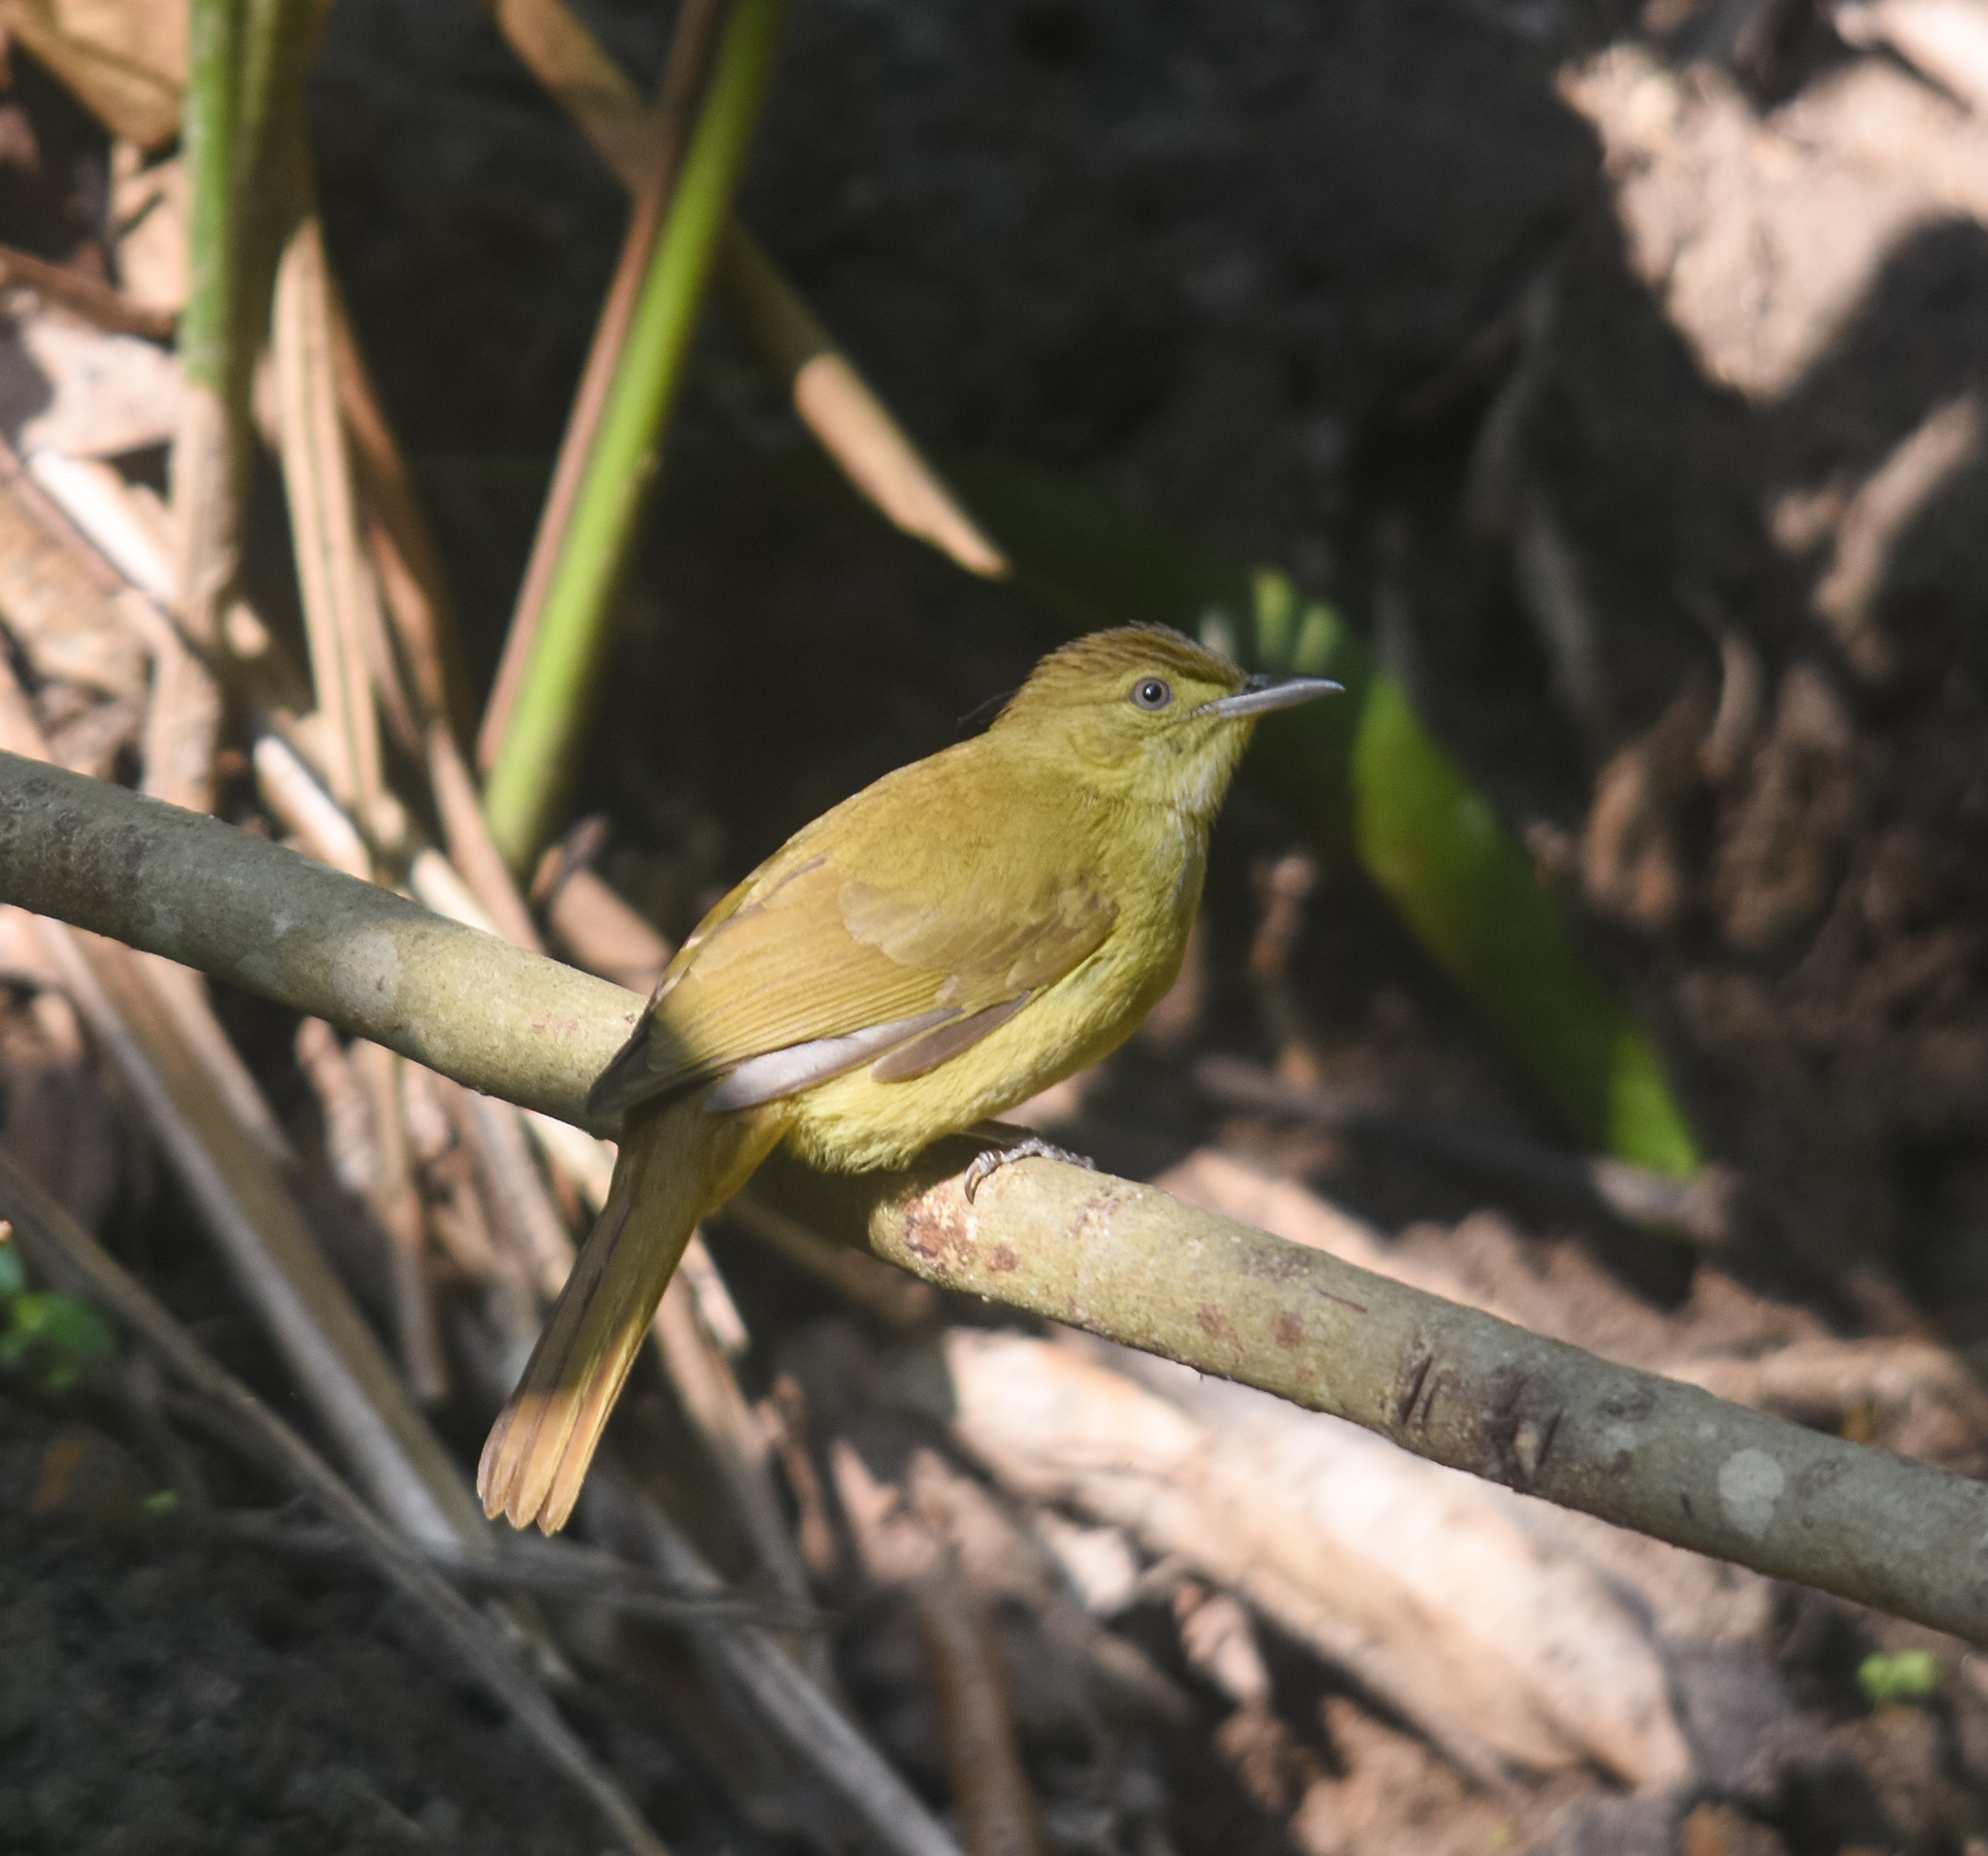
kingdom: Animalia
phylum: Chordata
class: Aves
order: Passeriformes
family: Pycnonotidae
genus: Iole
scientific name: Iole virescens
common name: Olive bulbul
